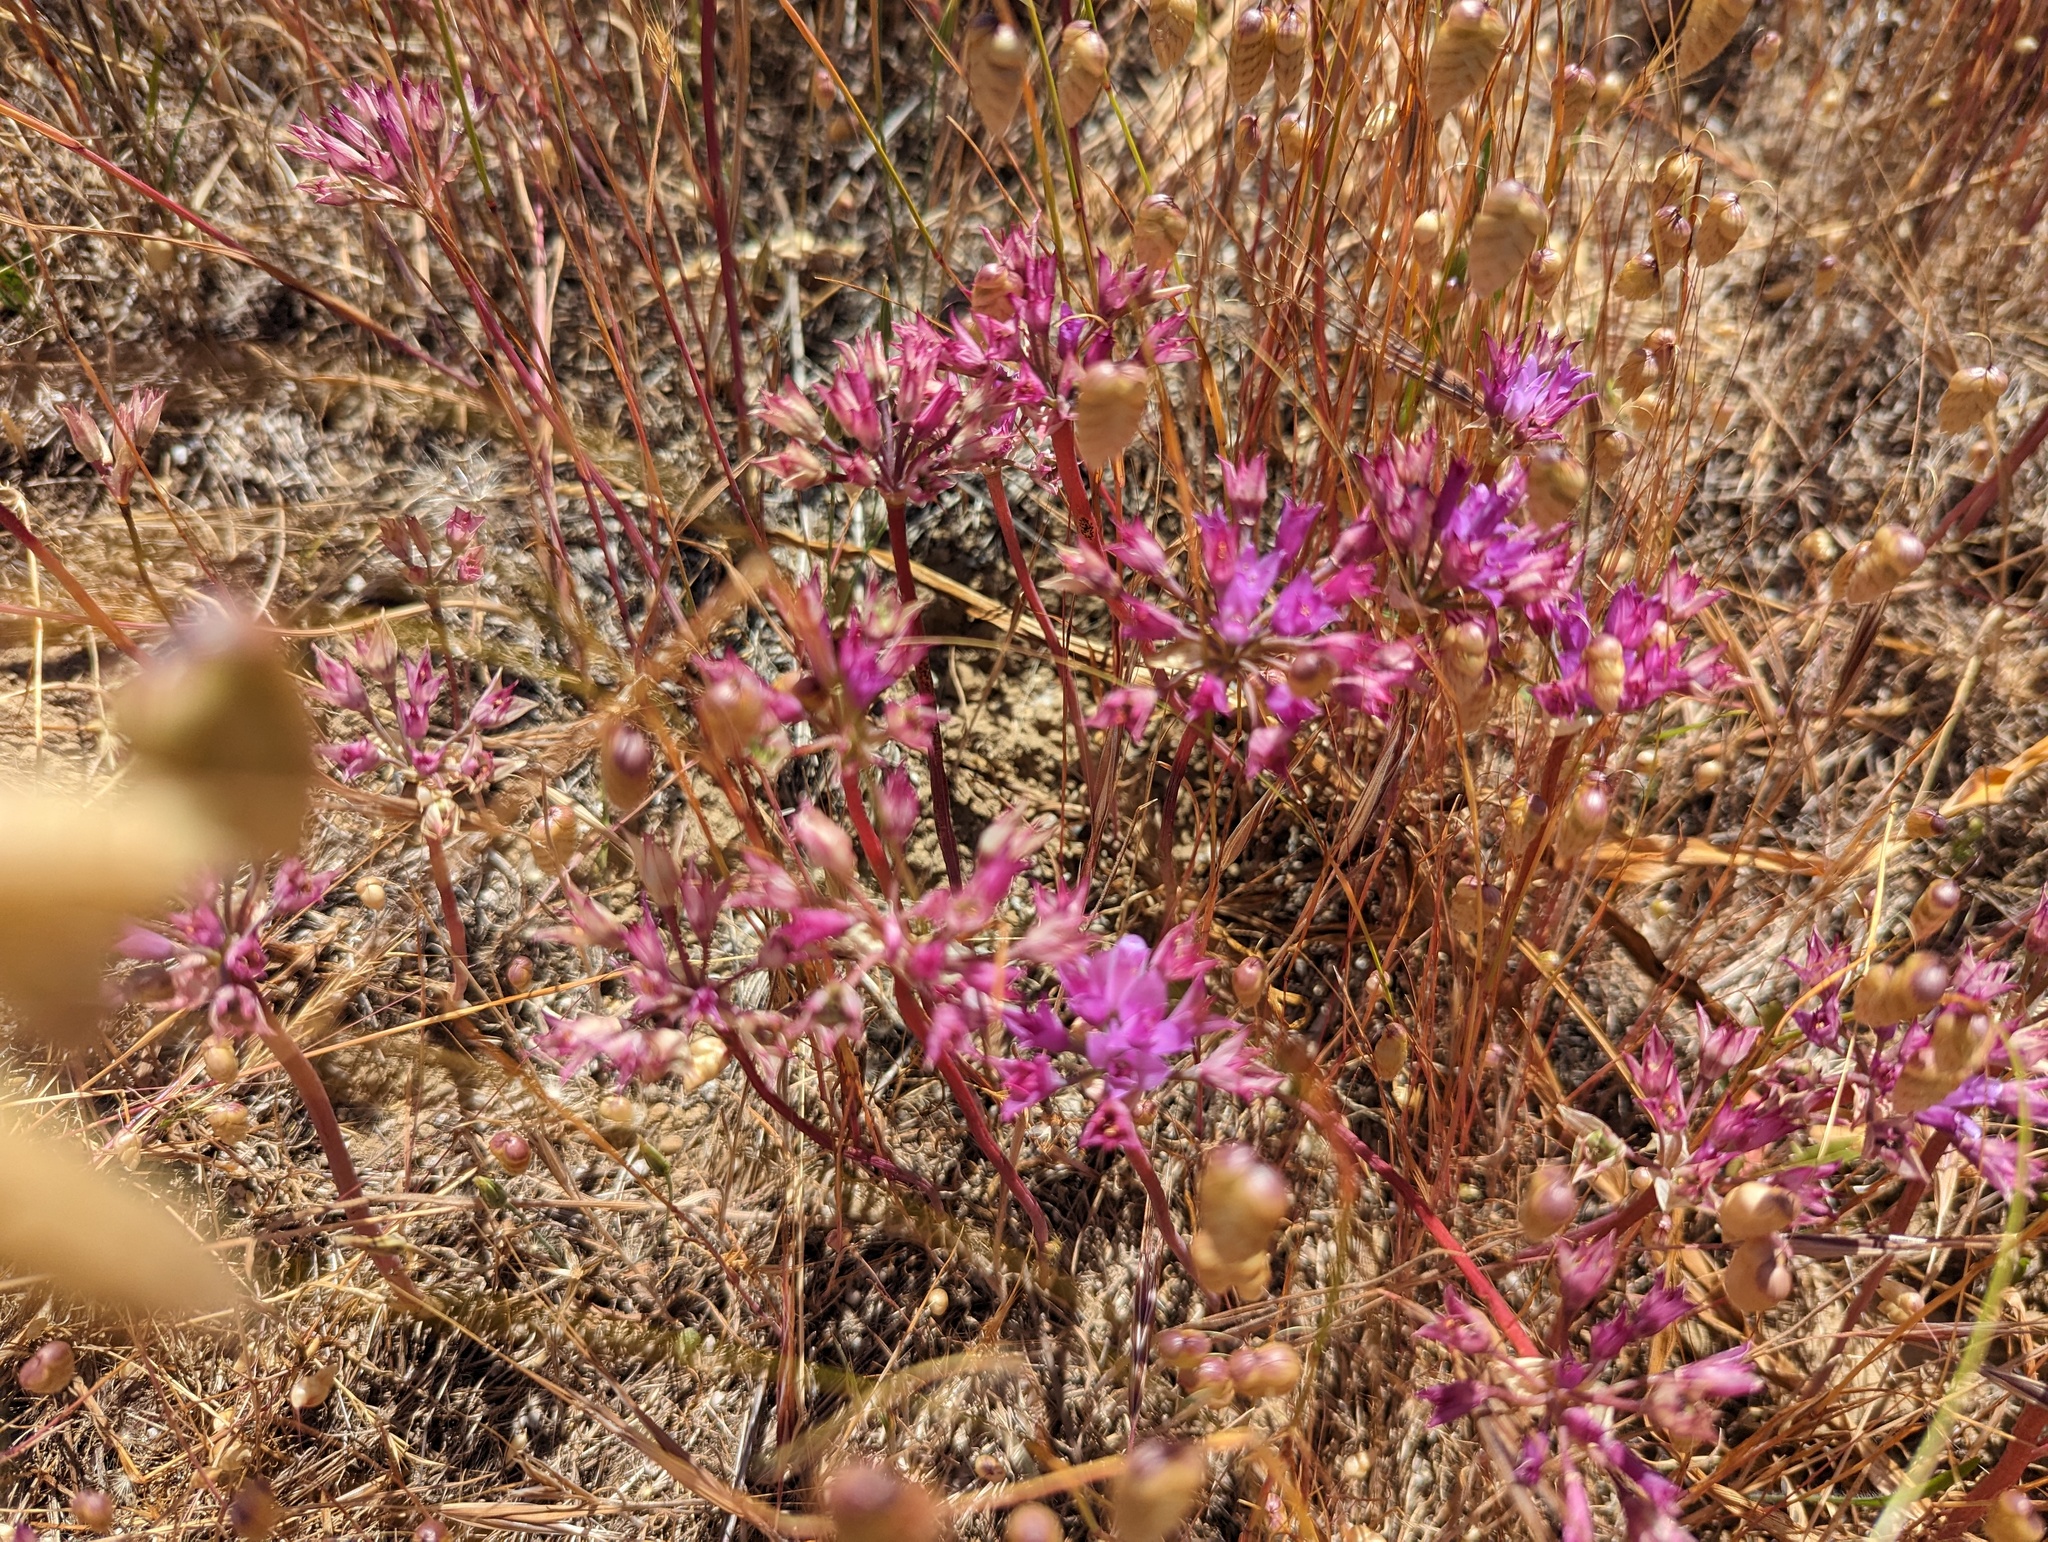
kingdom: Plantae
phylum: Tracheophyta
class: Liliopsida
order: Asparagales
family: Amaryllidaceae
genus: Allium
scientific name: Allium dichlamydeum
